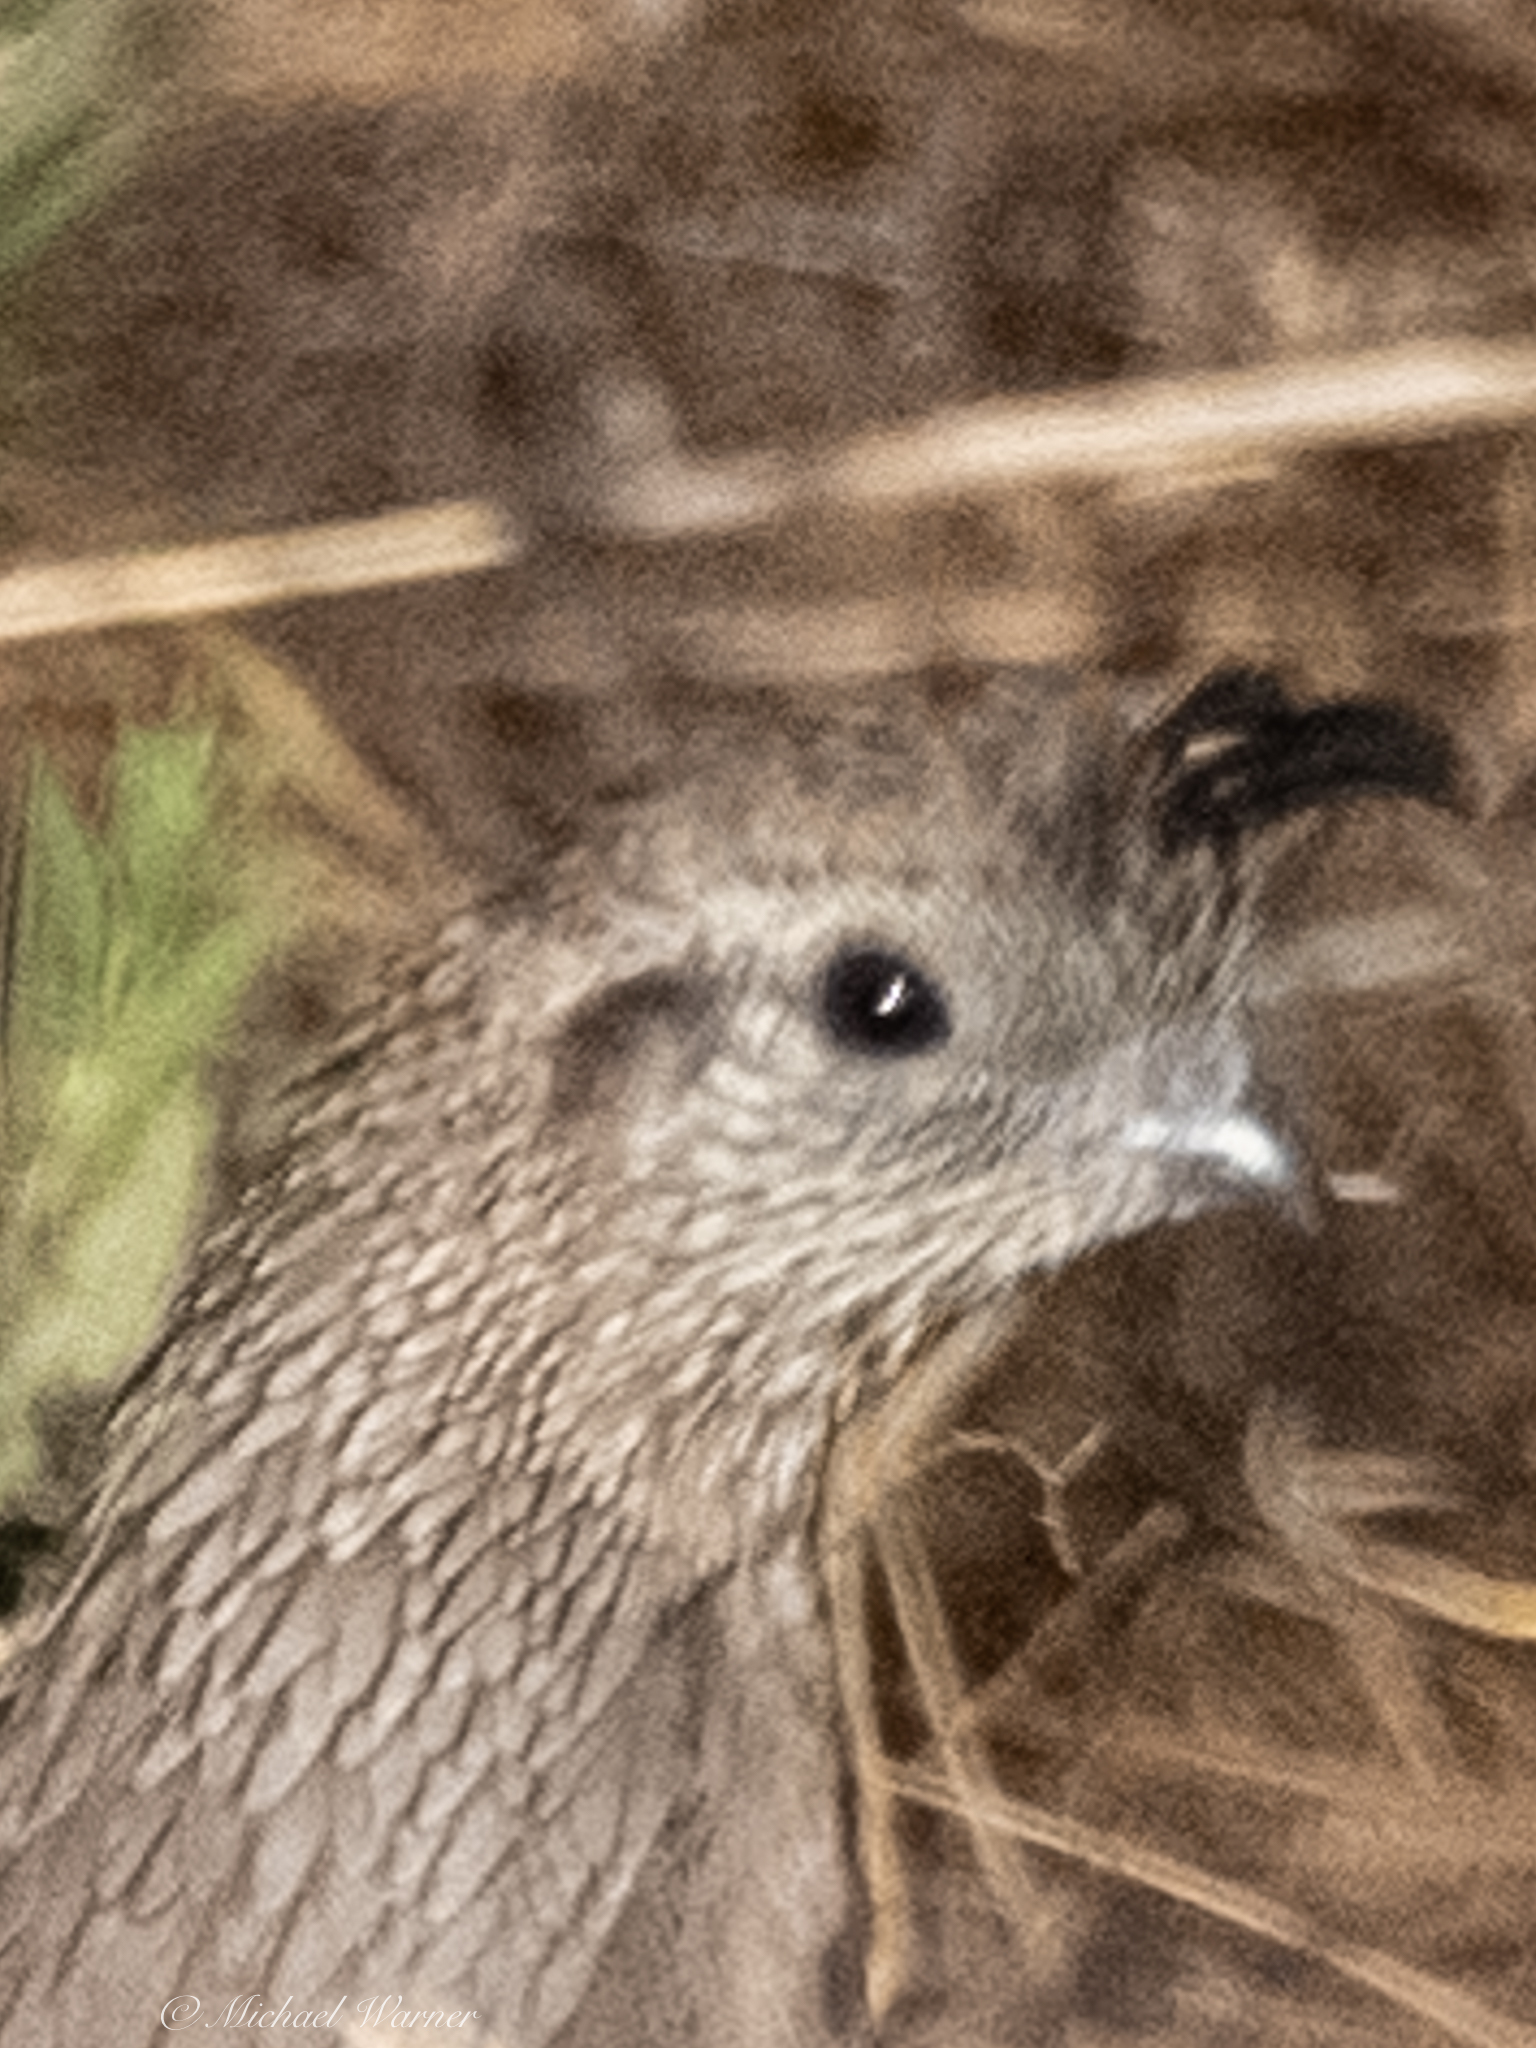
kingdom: Animalia
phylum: Chordata
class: Aves
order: Galliformes
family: Odontophoridae
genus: Callipepla
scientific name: Callipepla californica
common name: California quail
